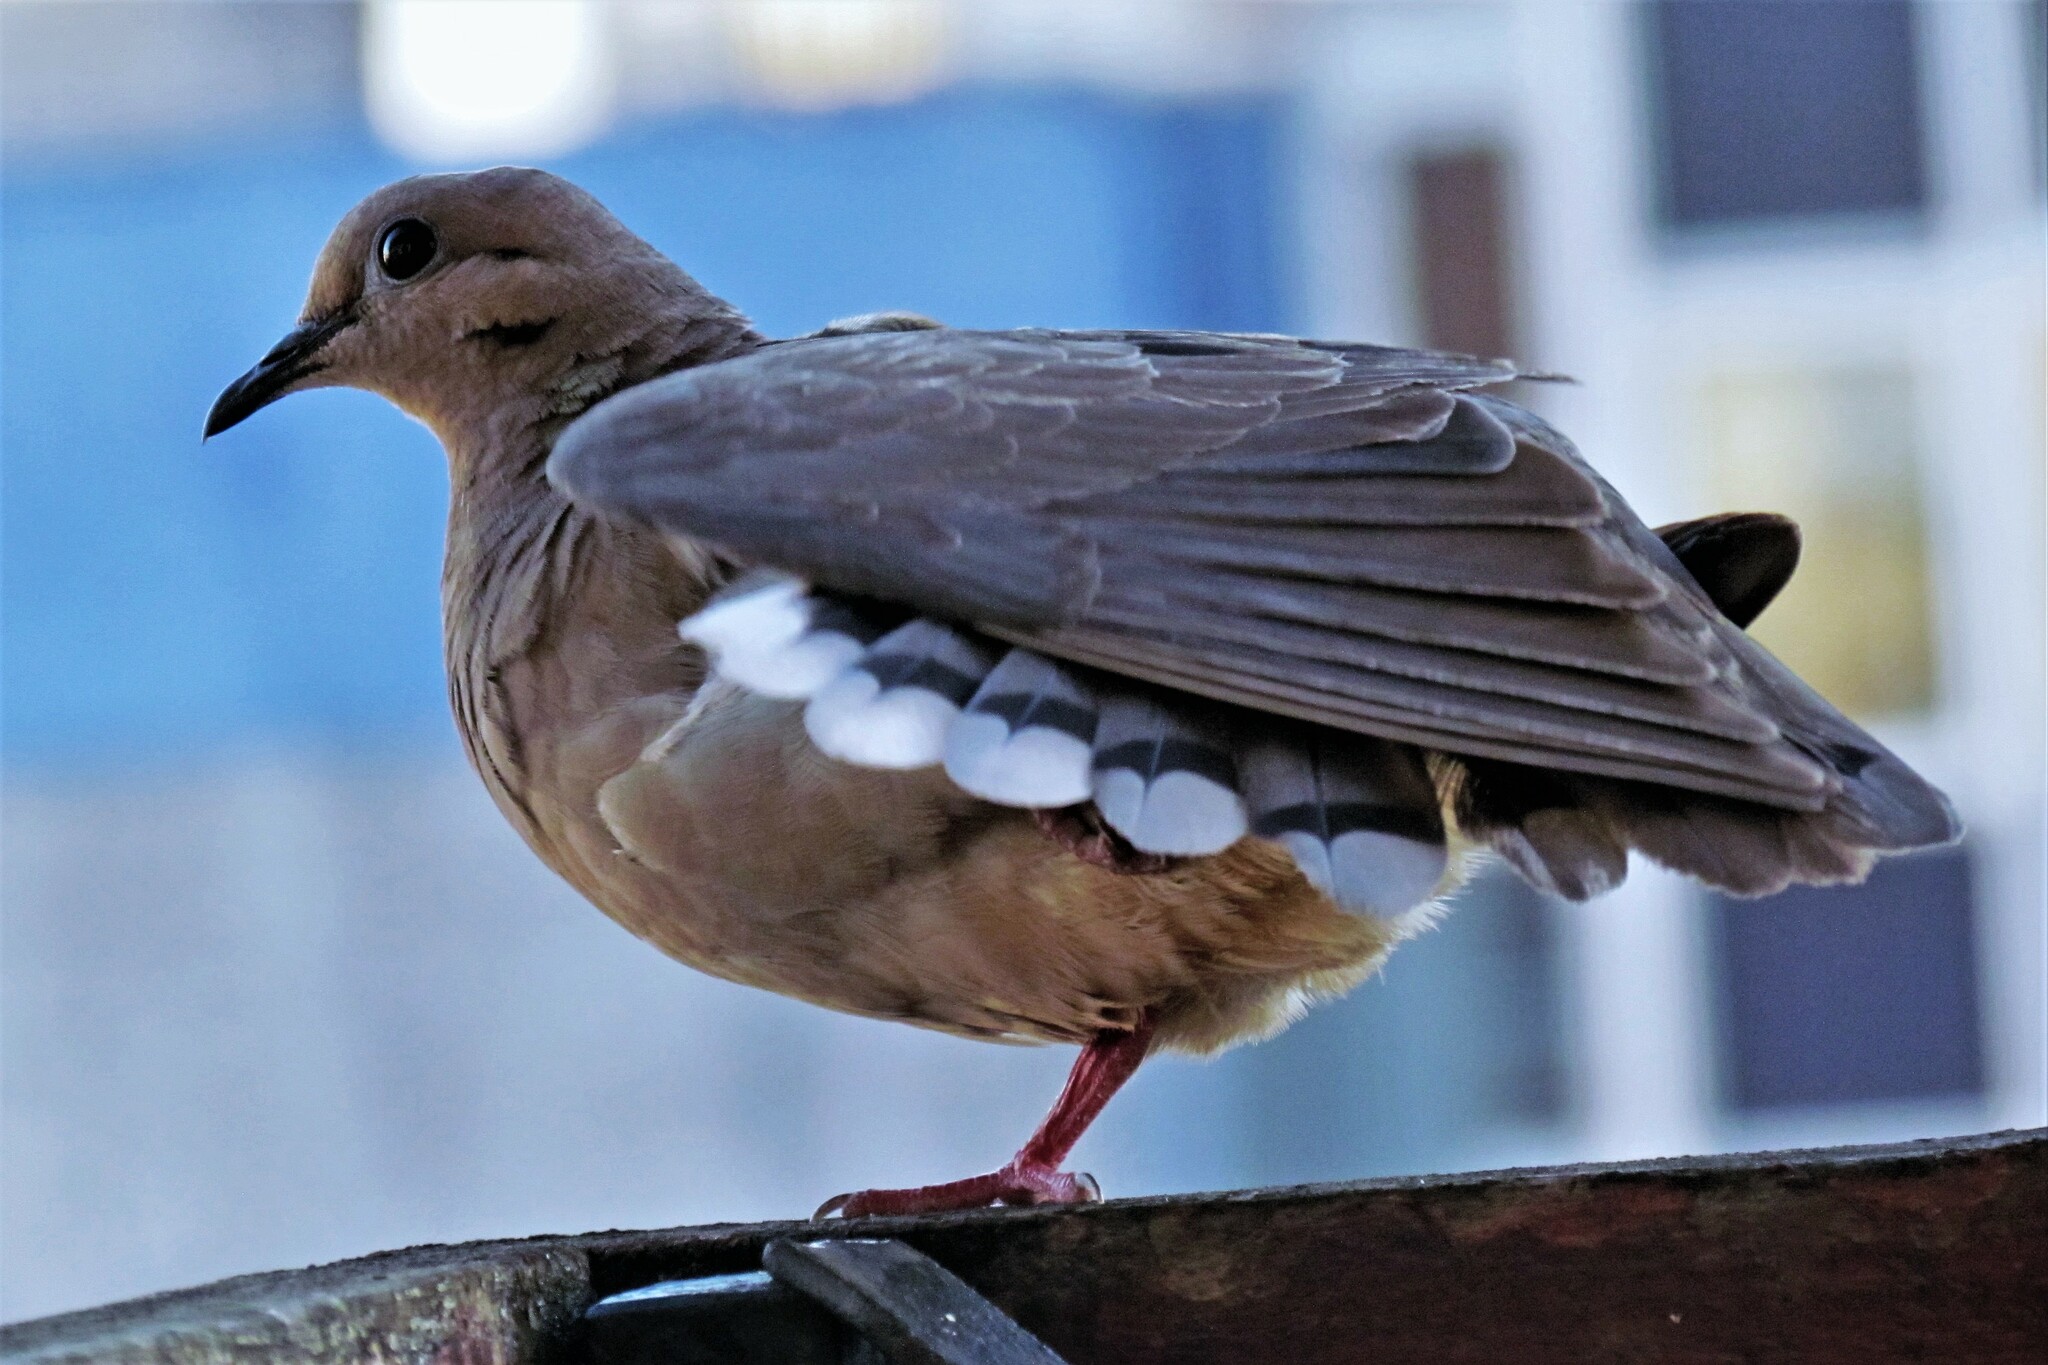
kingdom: Animalia
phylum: Chordata
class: Aves
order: Columbiformes
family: Columbidae
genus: Zenaida
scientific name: Zenaida auriculata
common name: Eared dove
